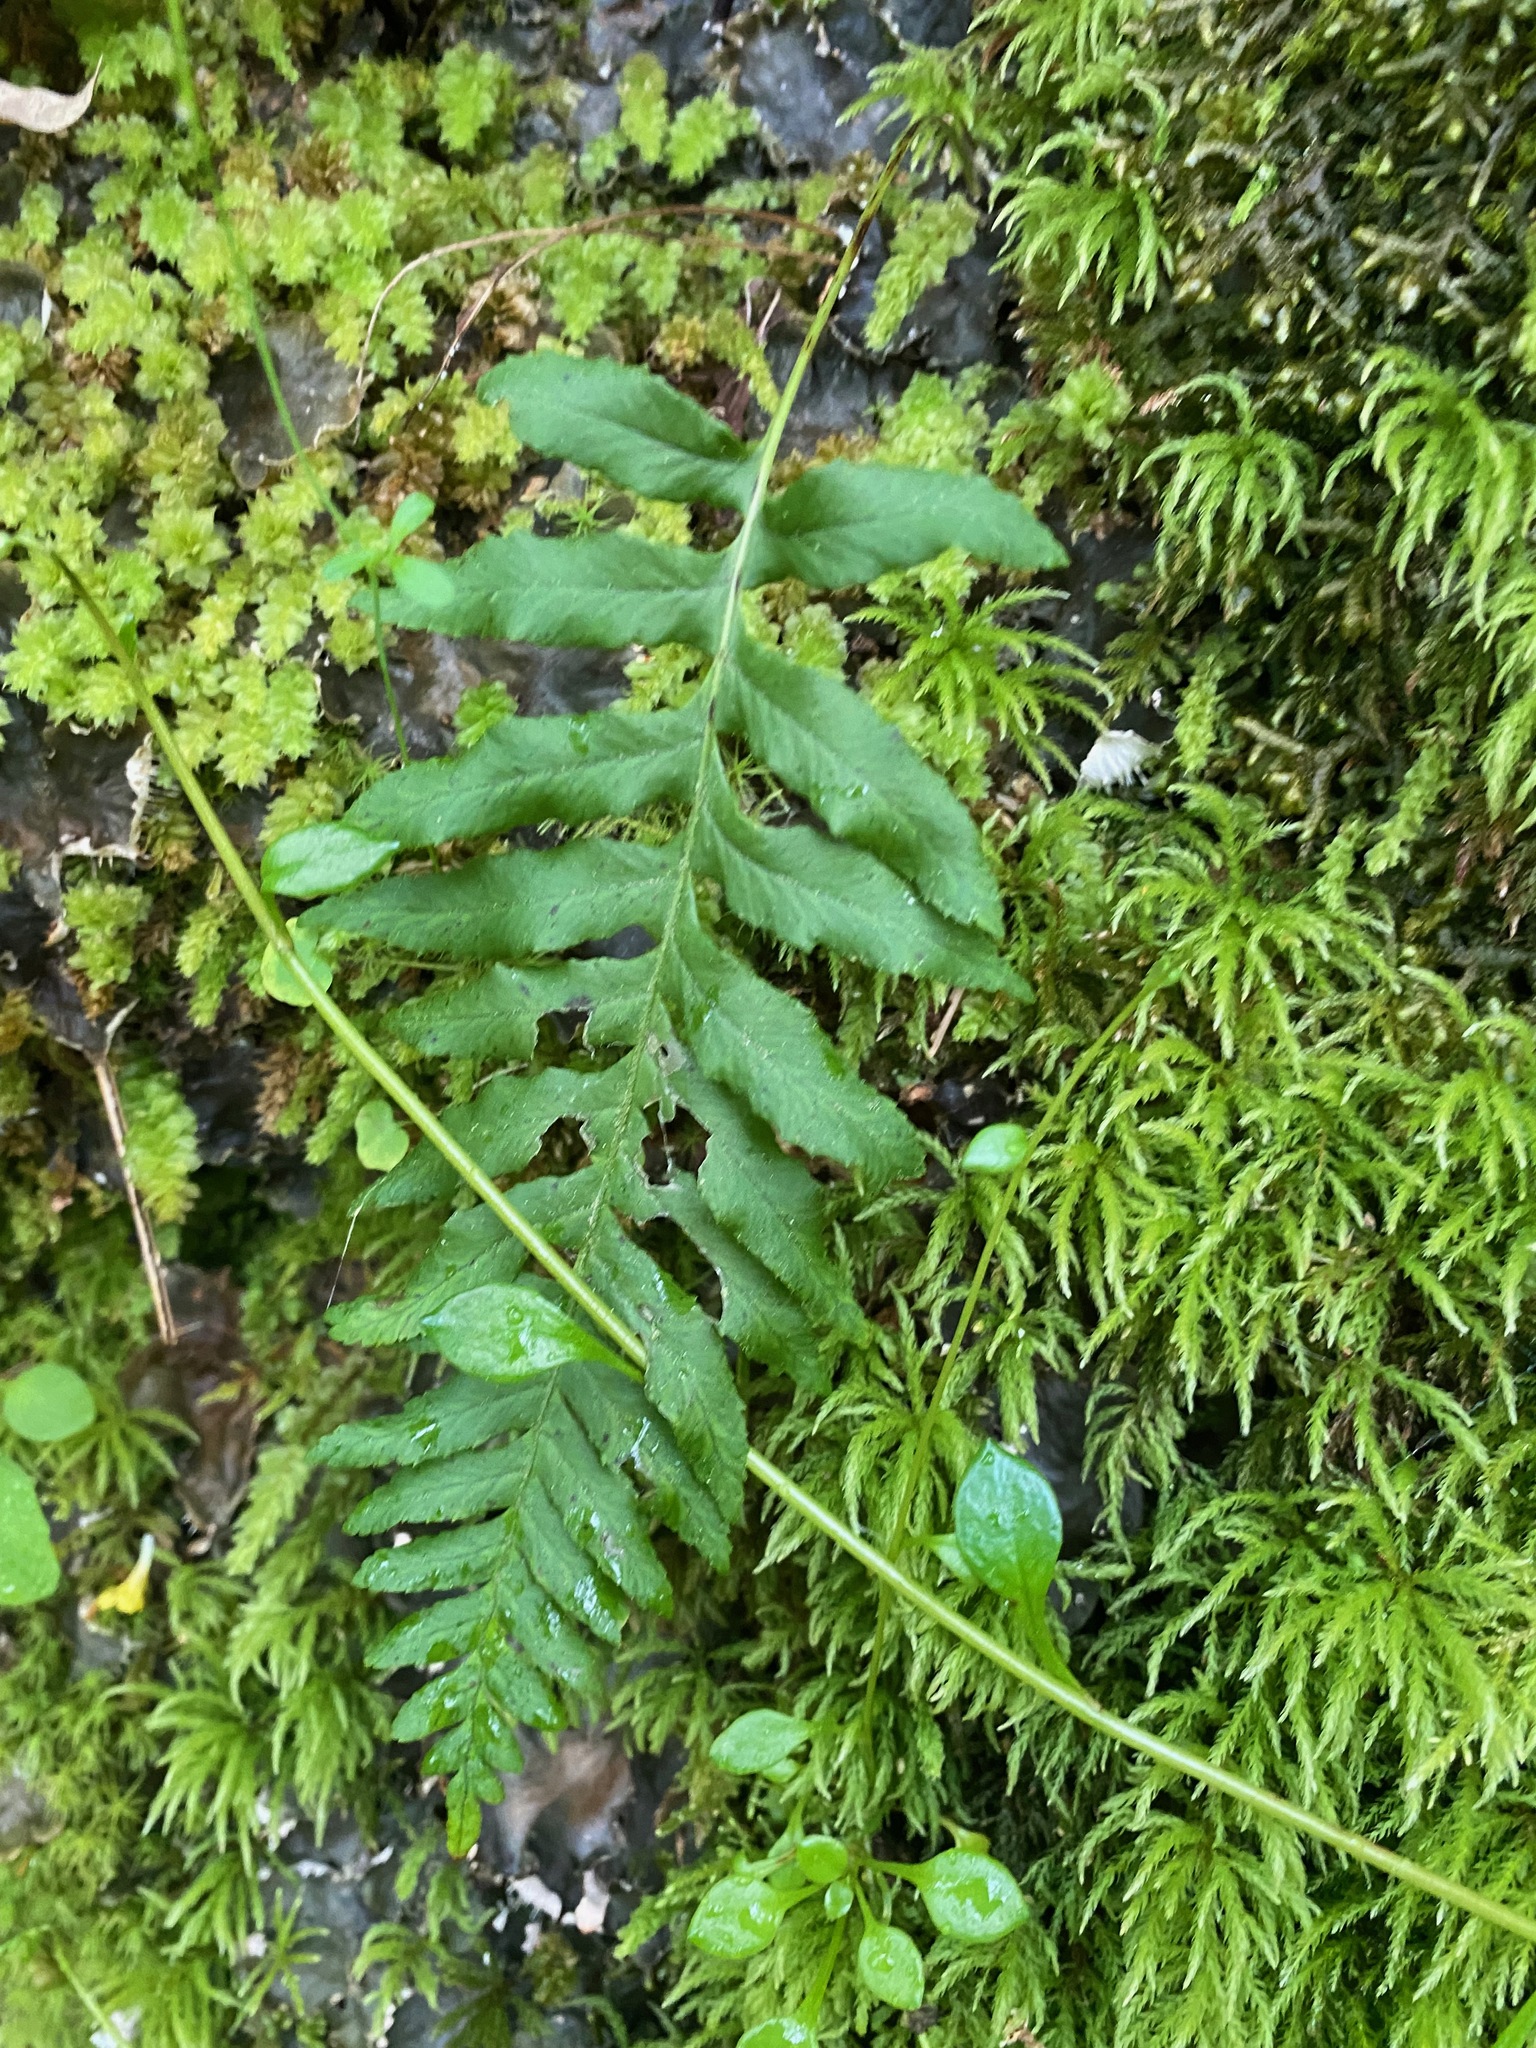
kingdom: Plantae
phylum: Tracheophyta
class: Polypodiopsida
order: Polypodiales
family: Polypodiaceae
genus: Polypodium
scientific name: Polypodium glycyrrhiza
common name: Licorice fern
